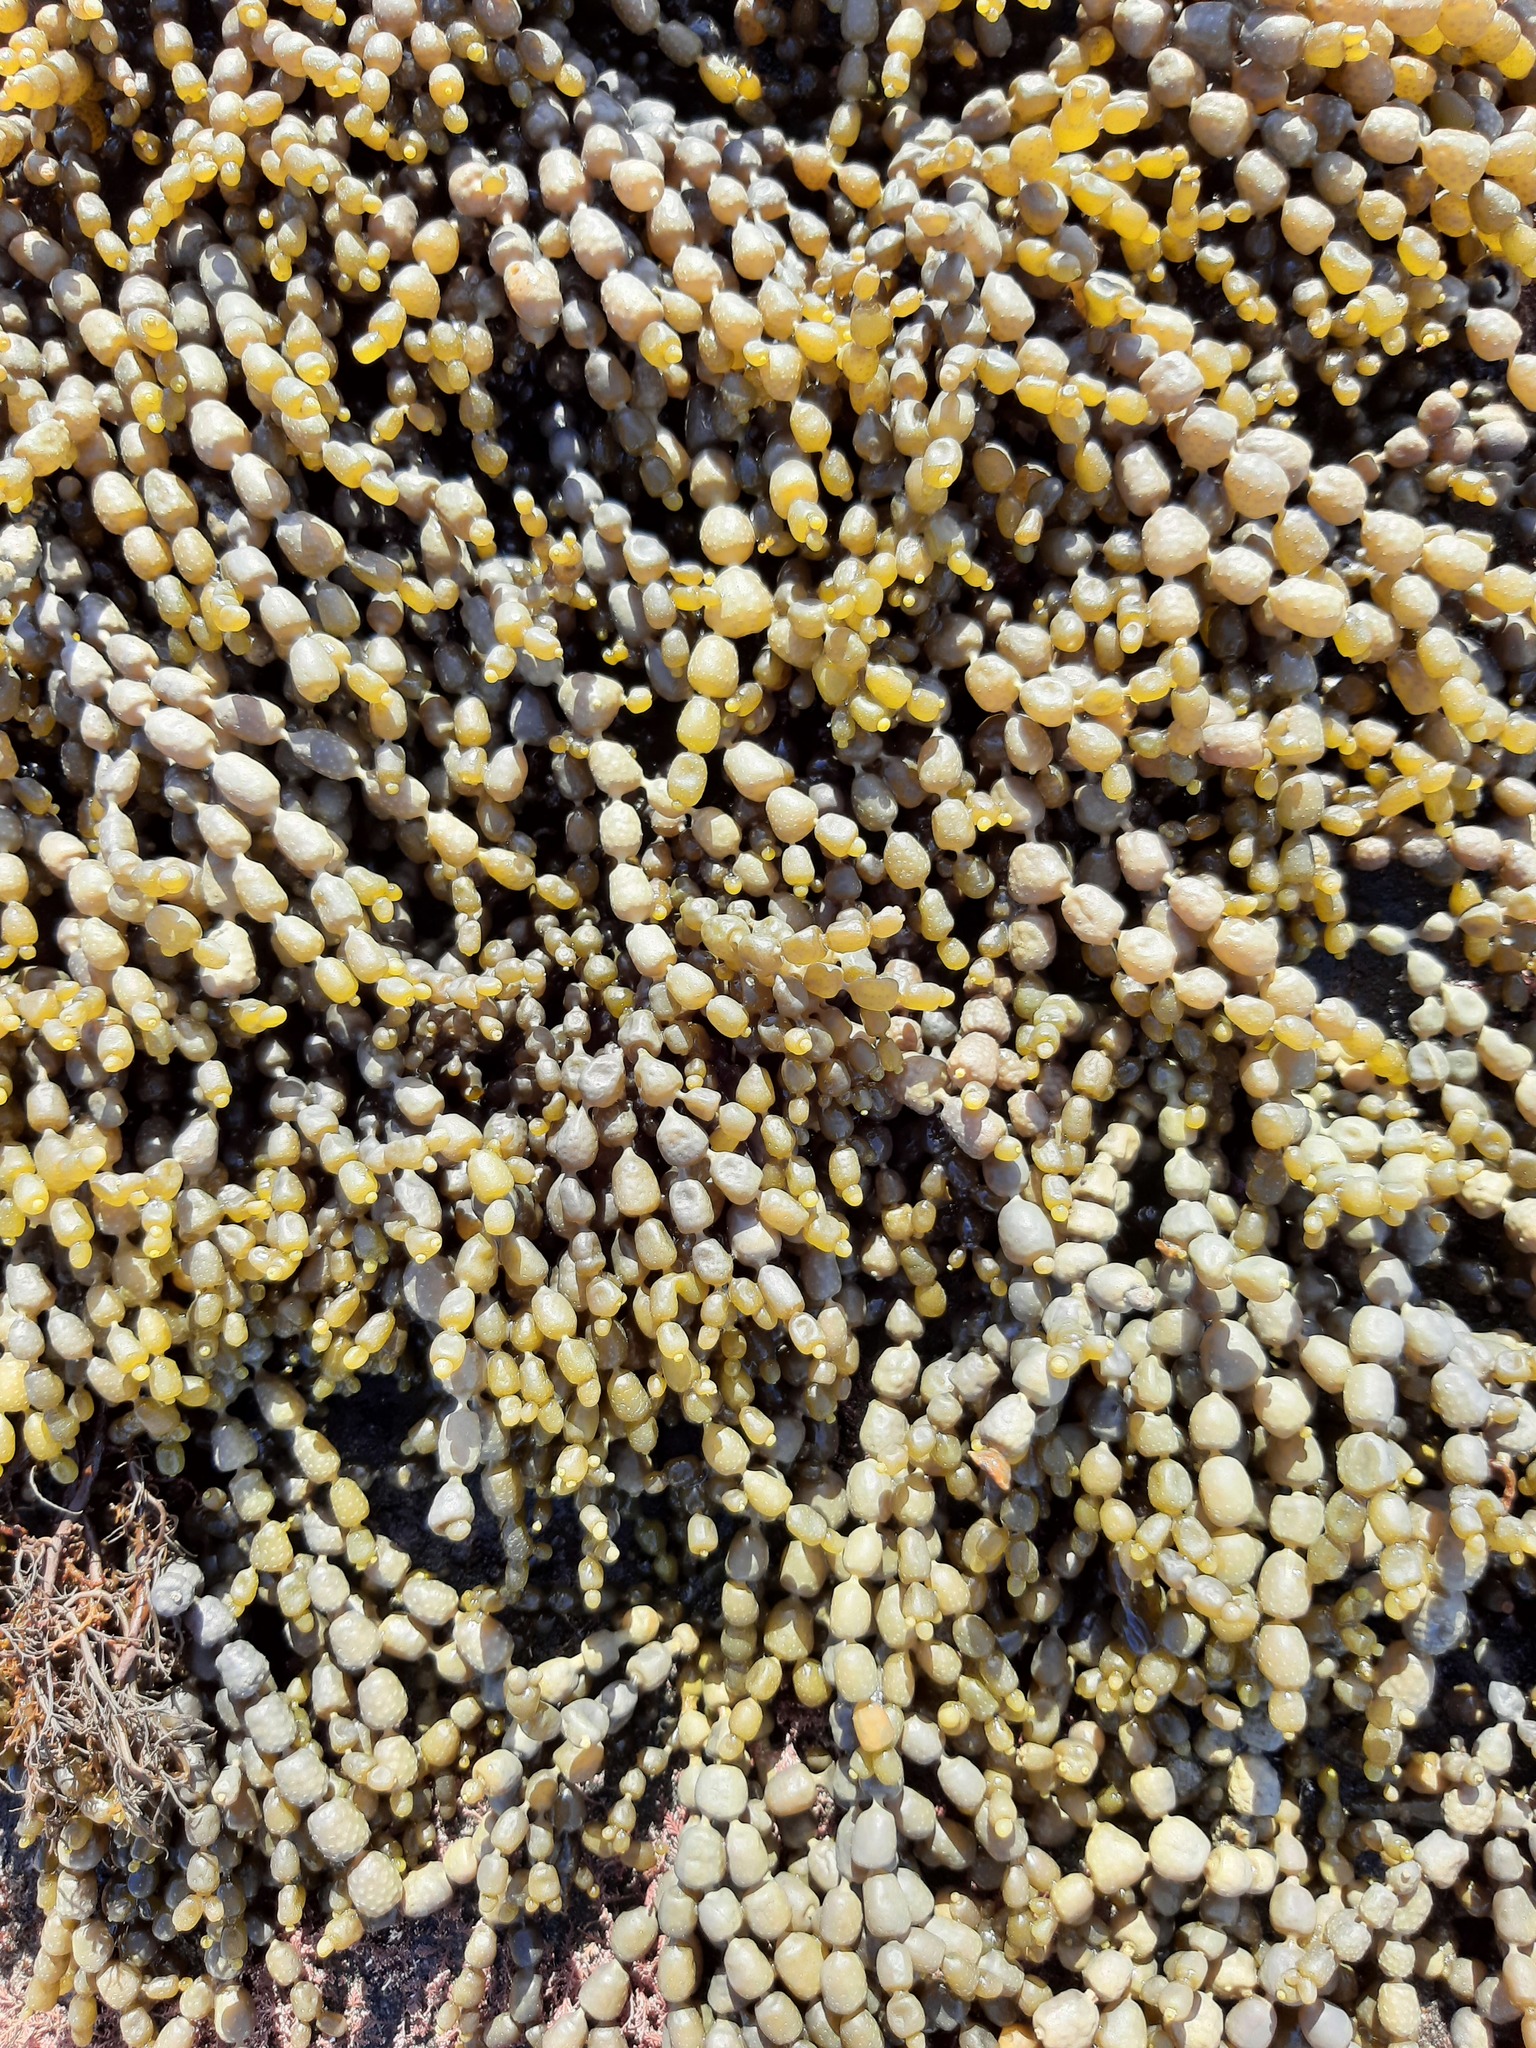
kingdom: Chromista
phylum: Ochrophyta
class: Phaeophyceae
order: Fucales
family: Hormosiraceae
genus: Hormosira
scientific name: Hormosira banksii
